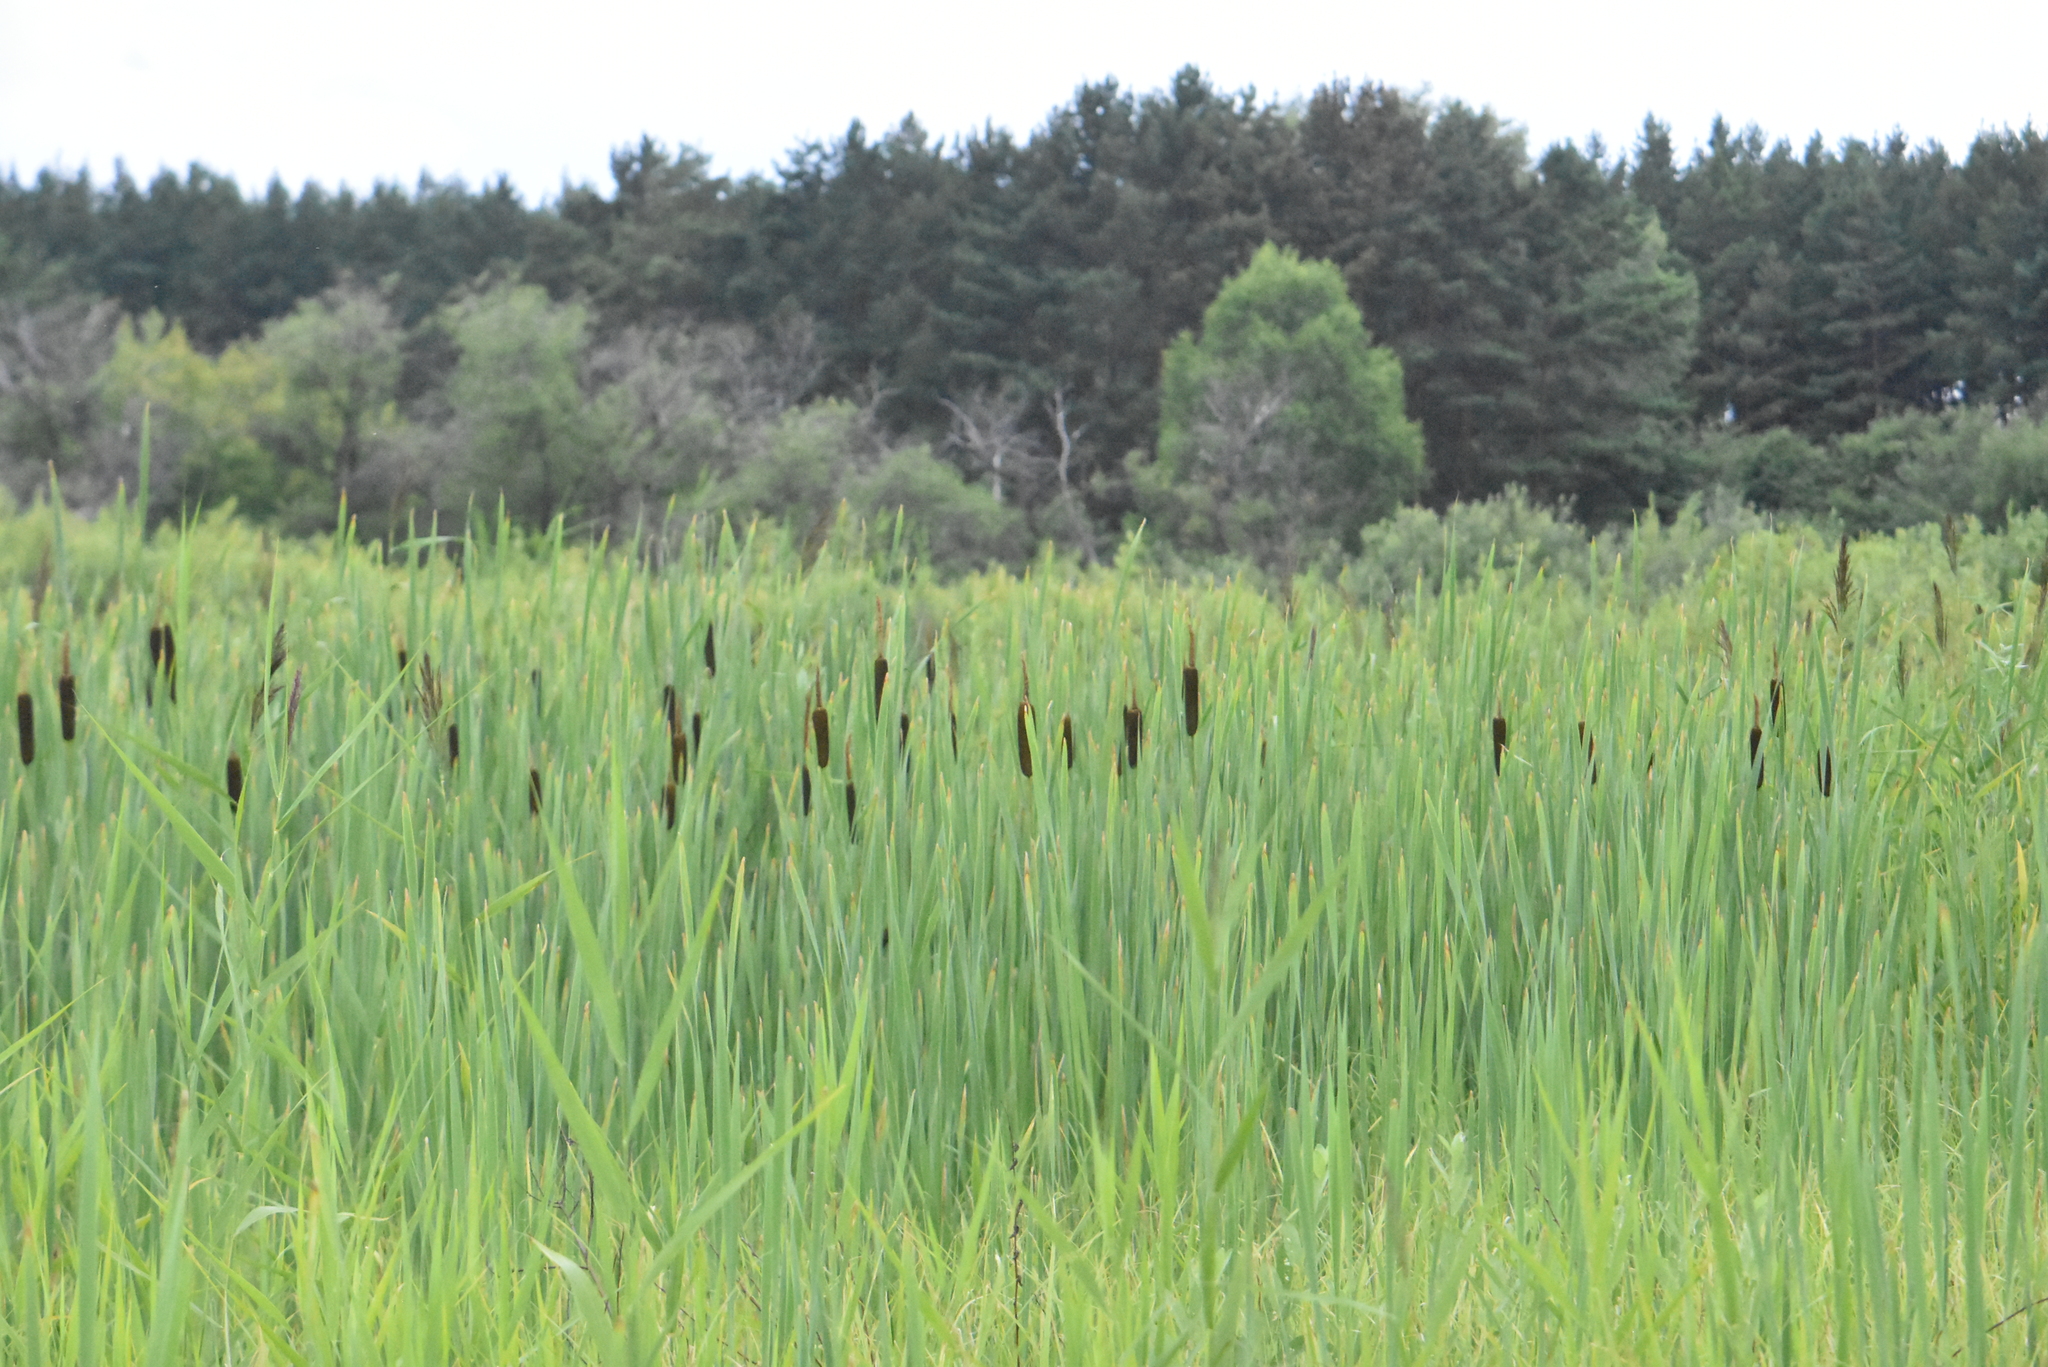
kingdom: Plantae
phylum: Tracheophyta
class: Liliopsida
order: Poales
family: Typhaceae
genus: Typha
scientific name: Typha latifolia
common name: Broadleaf cattail
